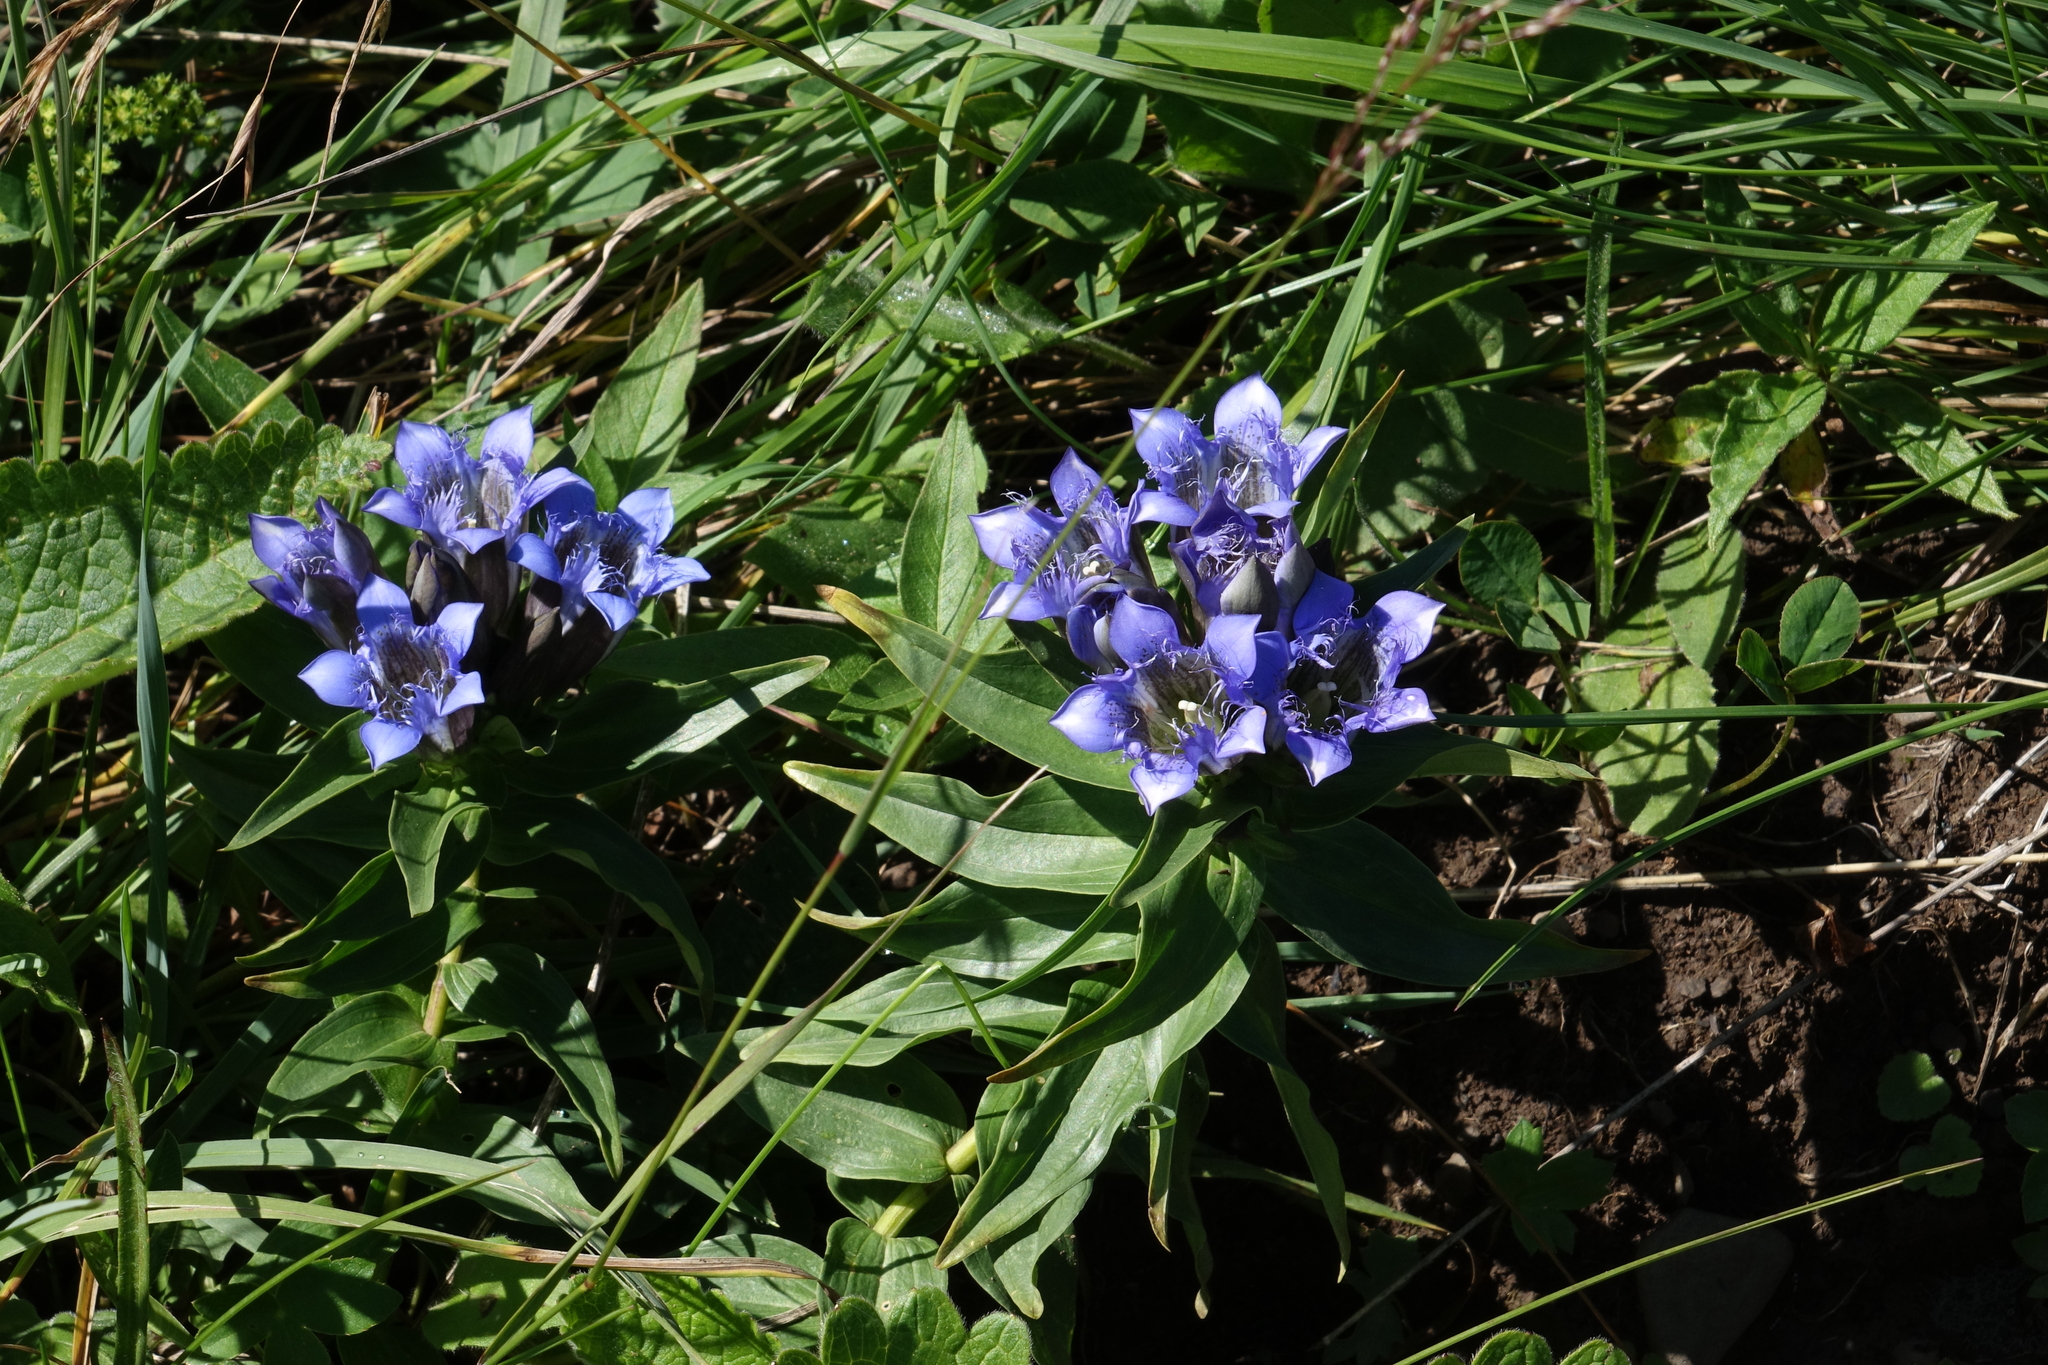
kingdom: Plantae
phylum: Tracheophyta
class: Magnoliopsida
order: Gentianales
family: Gentianaceae
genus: Gentiana
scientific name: Gentiana septemfida
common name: Crested gentian
